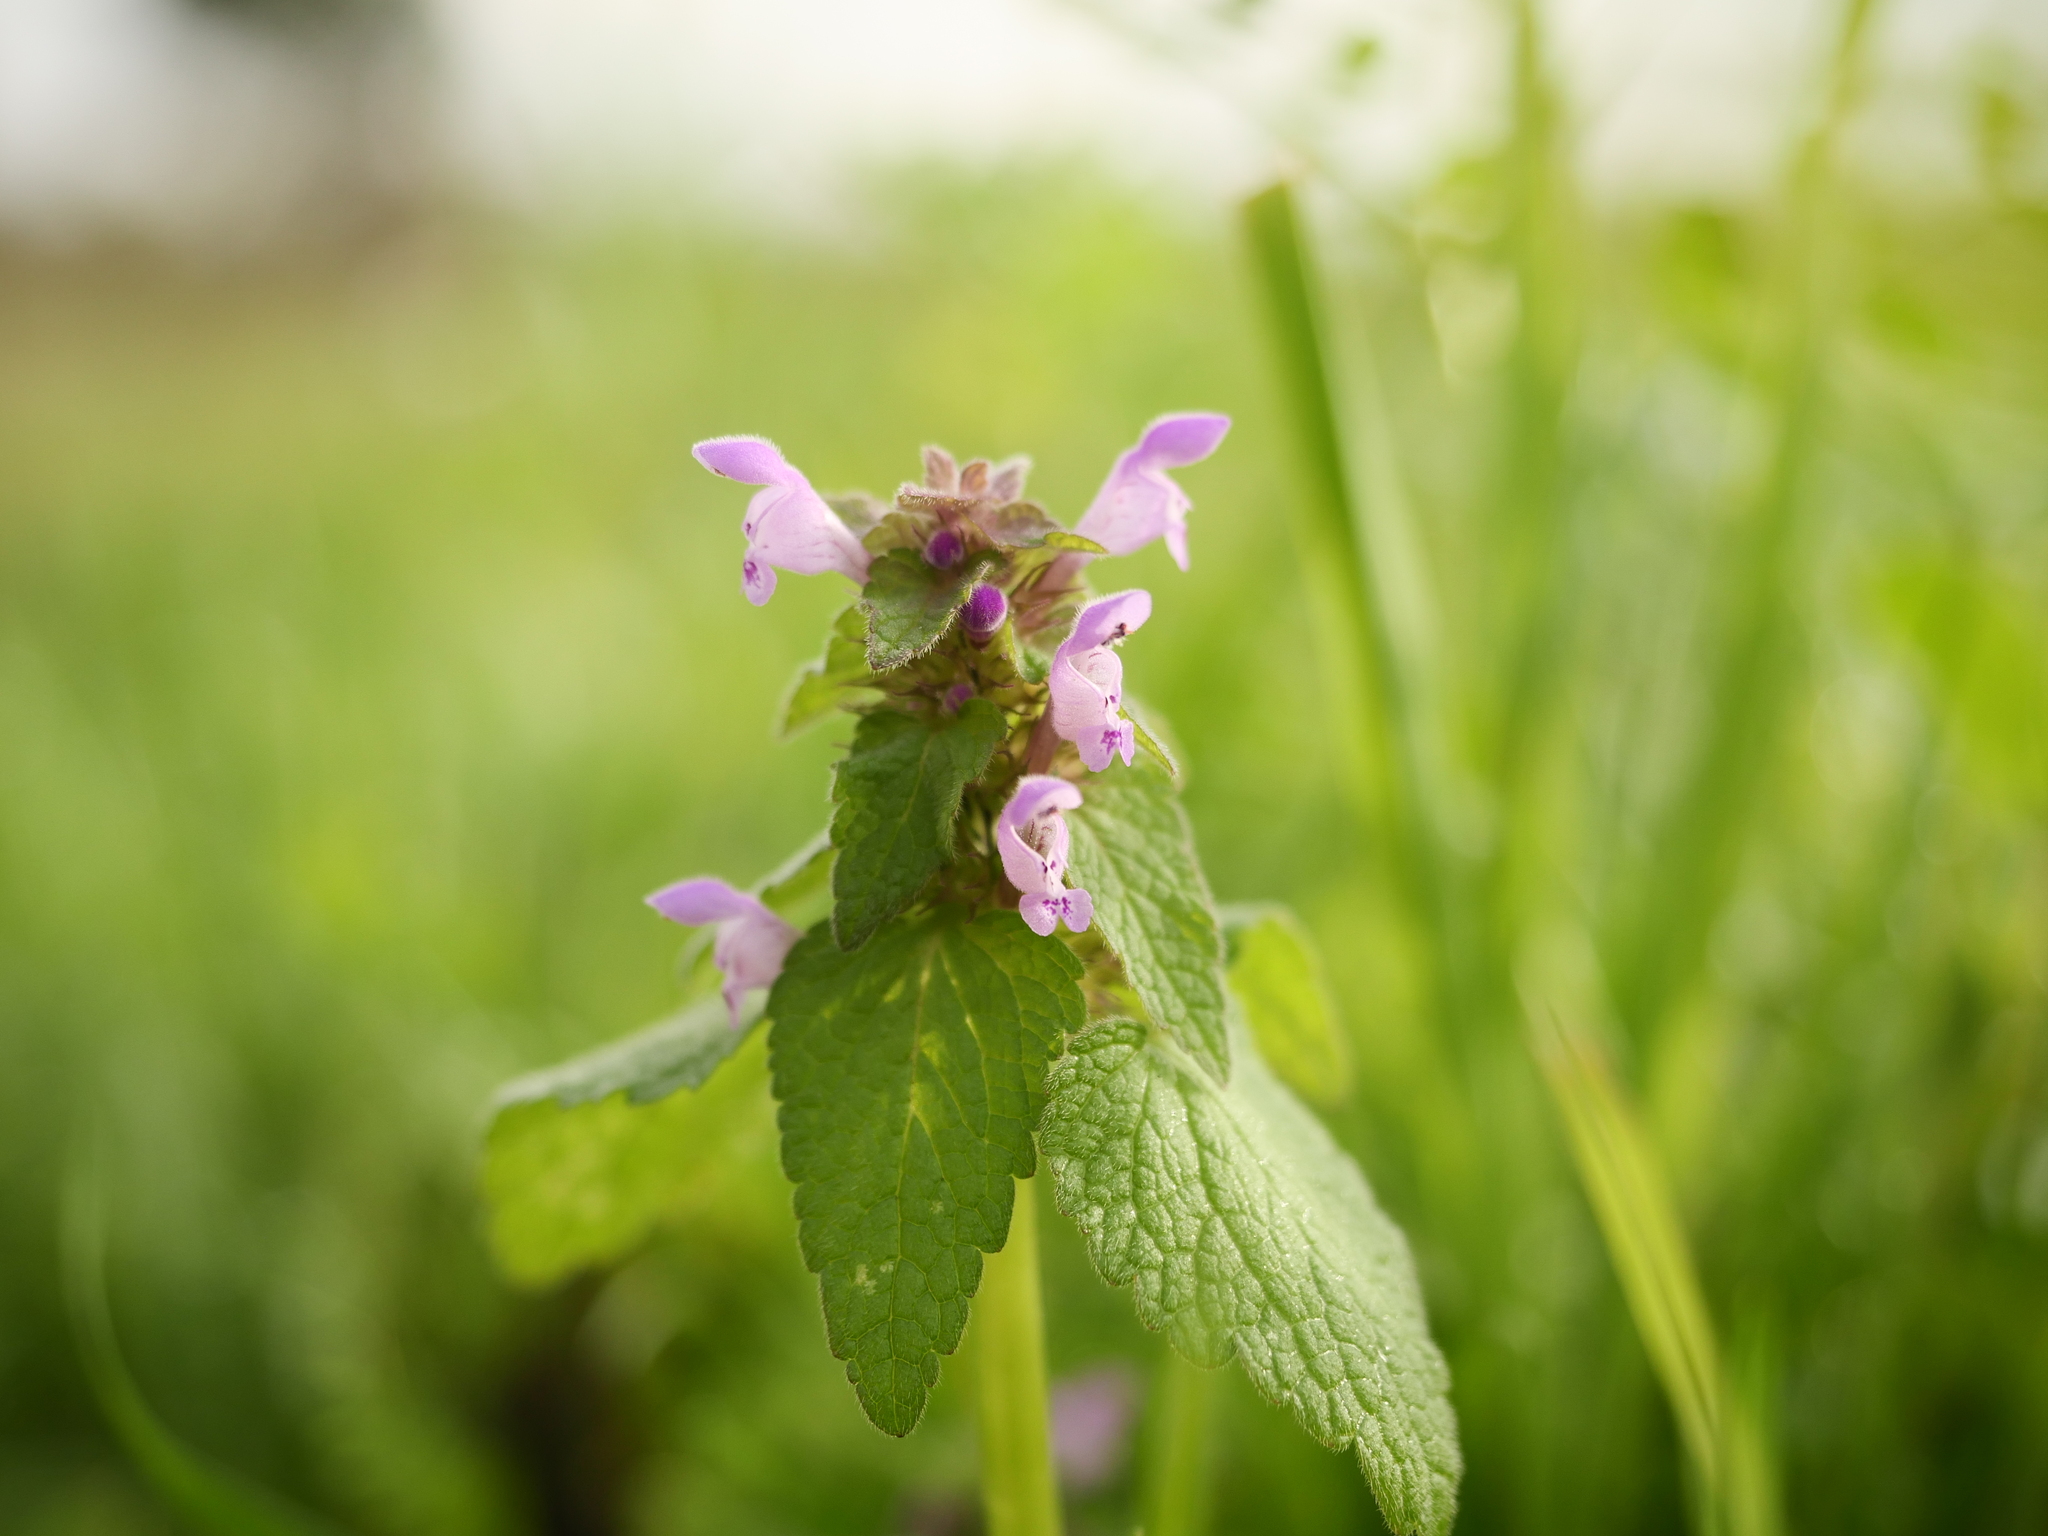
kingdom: Plantae
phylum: Tracheophyta
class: Magnoliopsida
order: Lamiales
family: Lamiaceae
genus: Lamium
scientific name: Lamium purpureum
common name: Red dead-nettle
